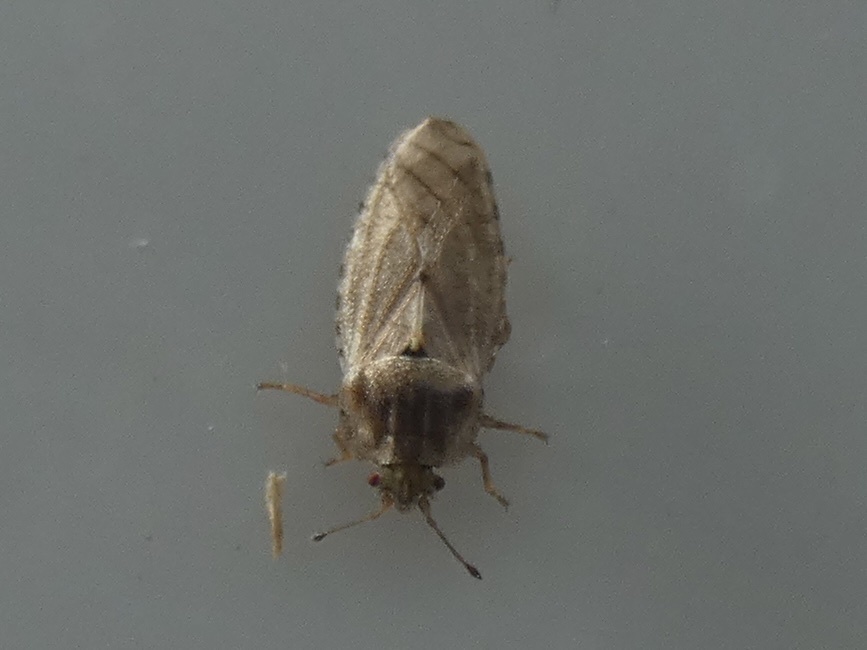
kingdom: Animalia
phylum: Arthropoda
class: Insecta
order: Hemiptera
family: Piesmatidae
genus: Parapiesma
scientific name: Parapiesma quadratum
